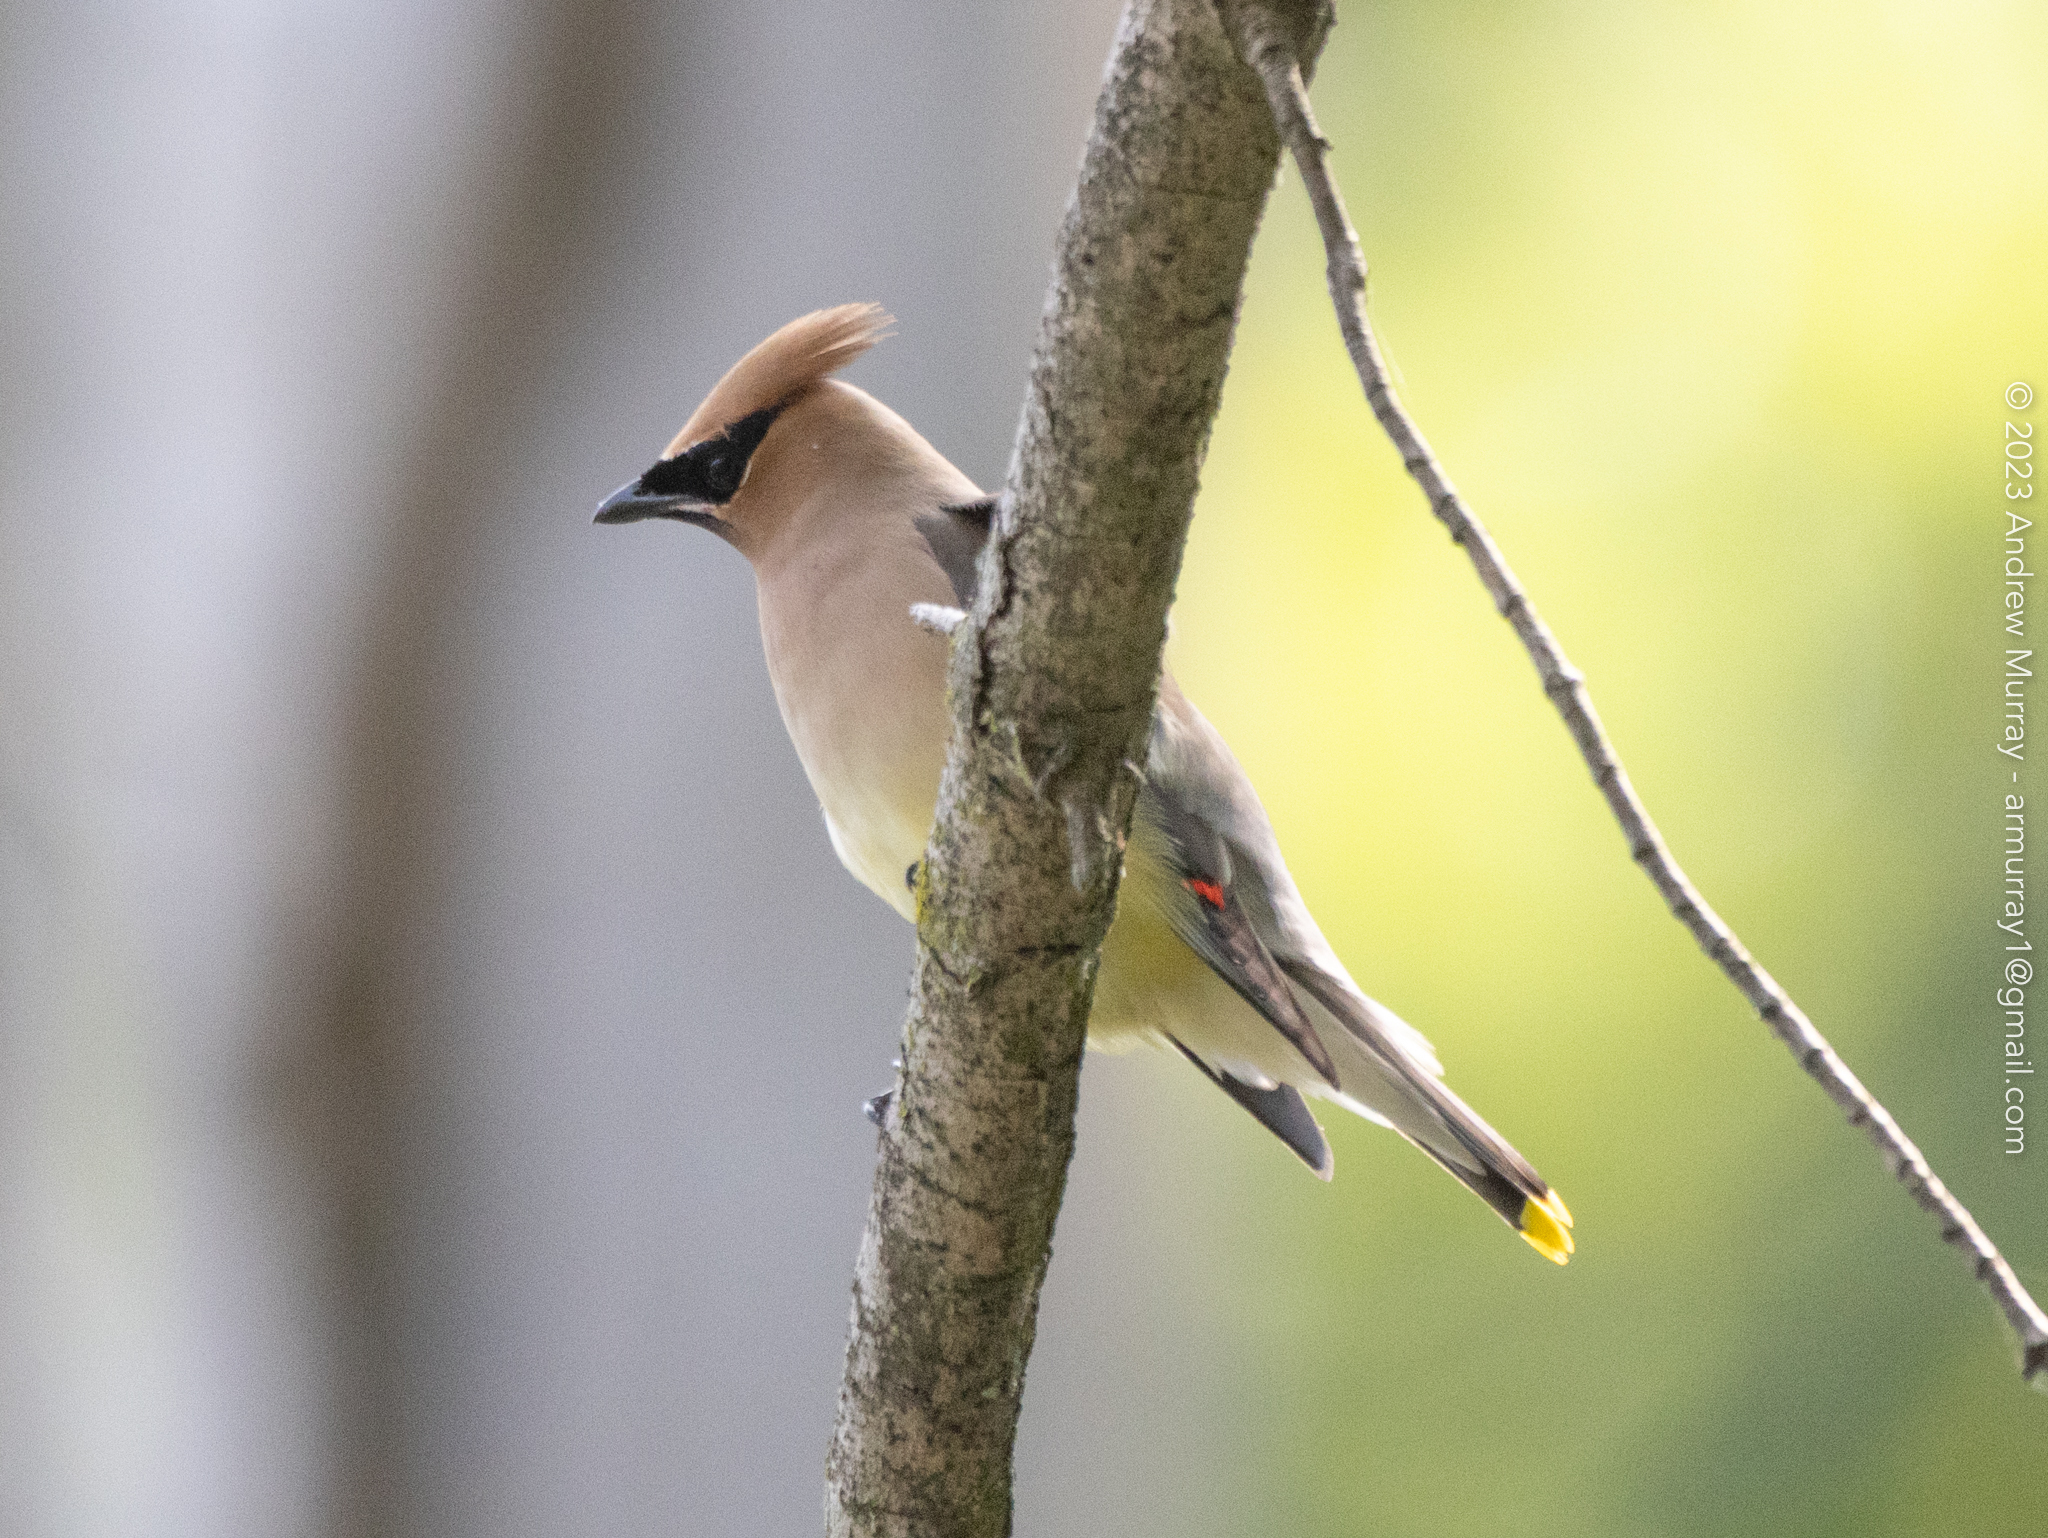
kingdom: Animalia
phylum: Chordata
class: Aves
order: Passeriformes
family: Bombycillidae
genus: Bombycilla
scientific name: Bombycilla cedrorum
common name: Cedar waxwing
